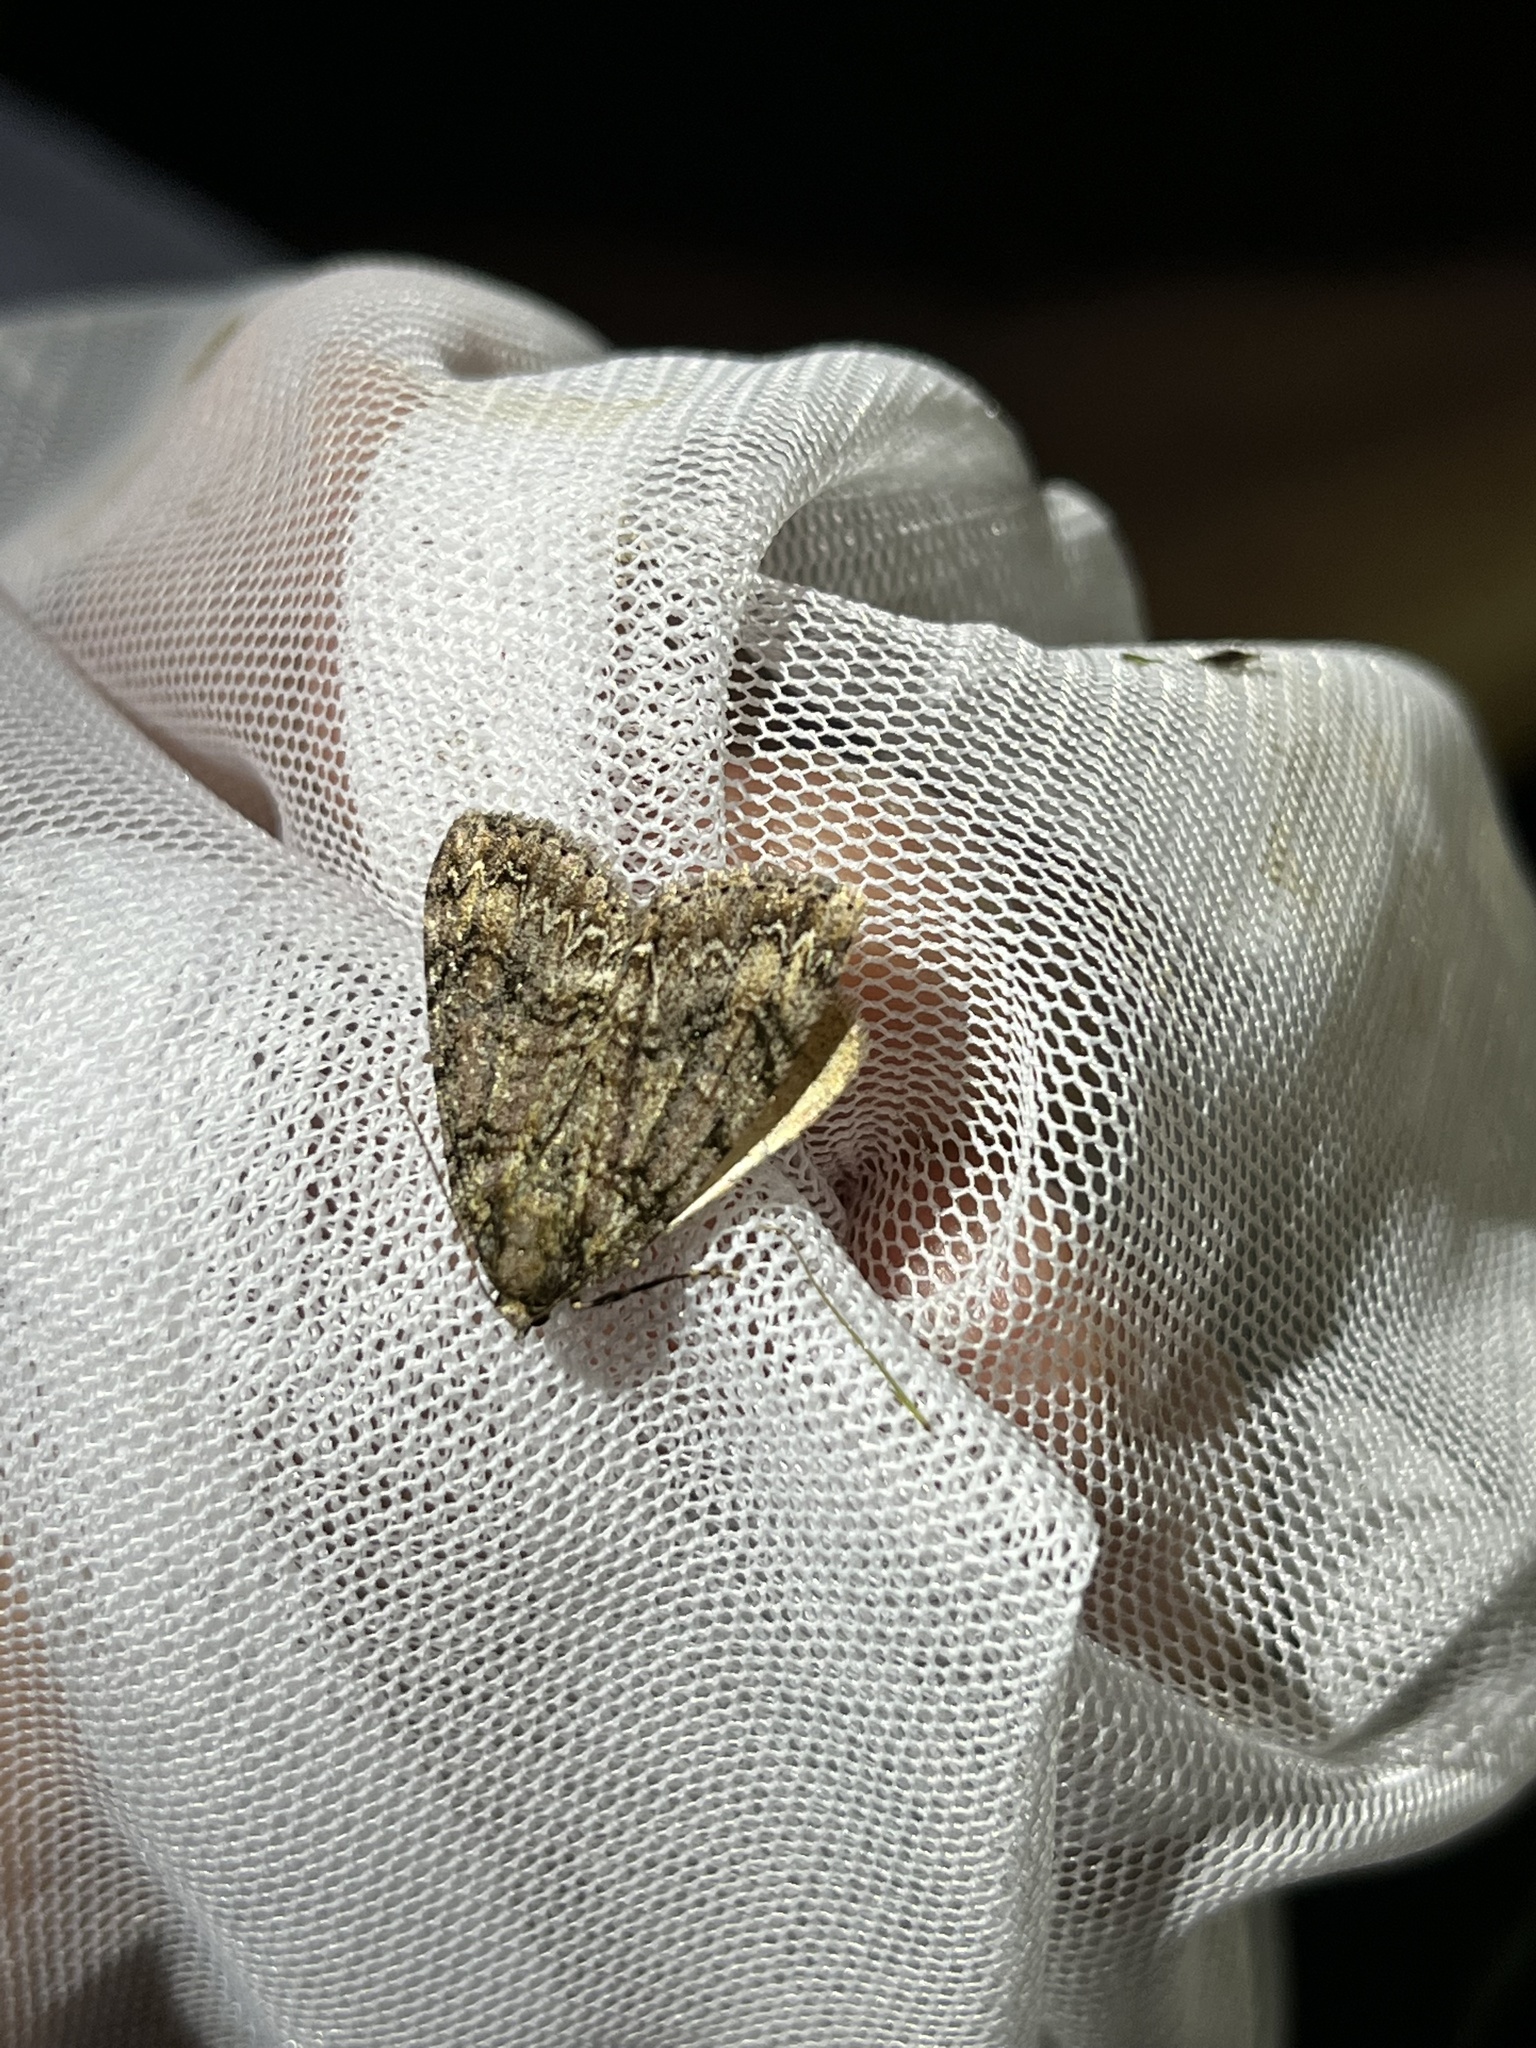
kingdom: Animalia
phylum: Arthropoda
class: Insecta
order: Lepidoptera
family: Geometridae
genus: Pseudocoremia
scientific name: Pseudocoremia leucelaea
